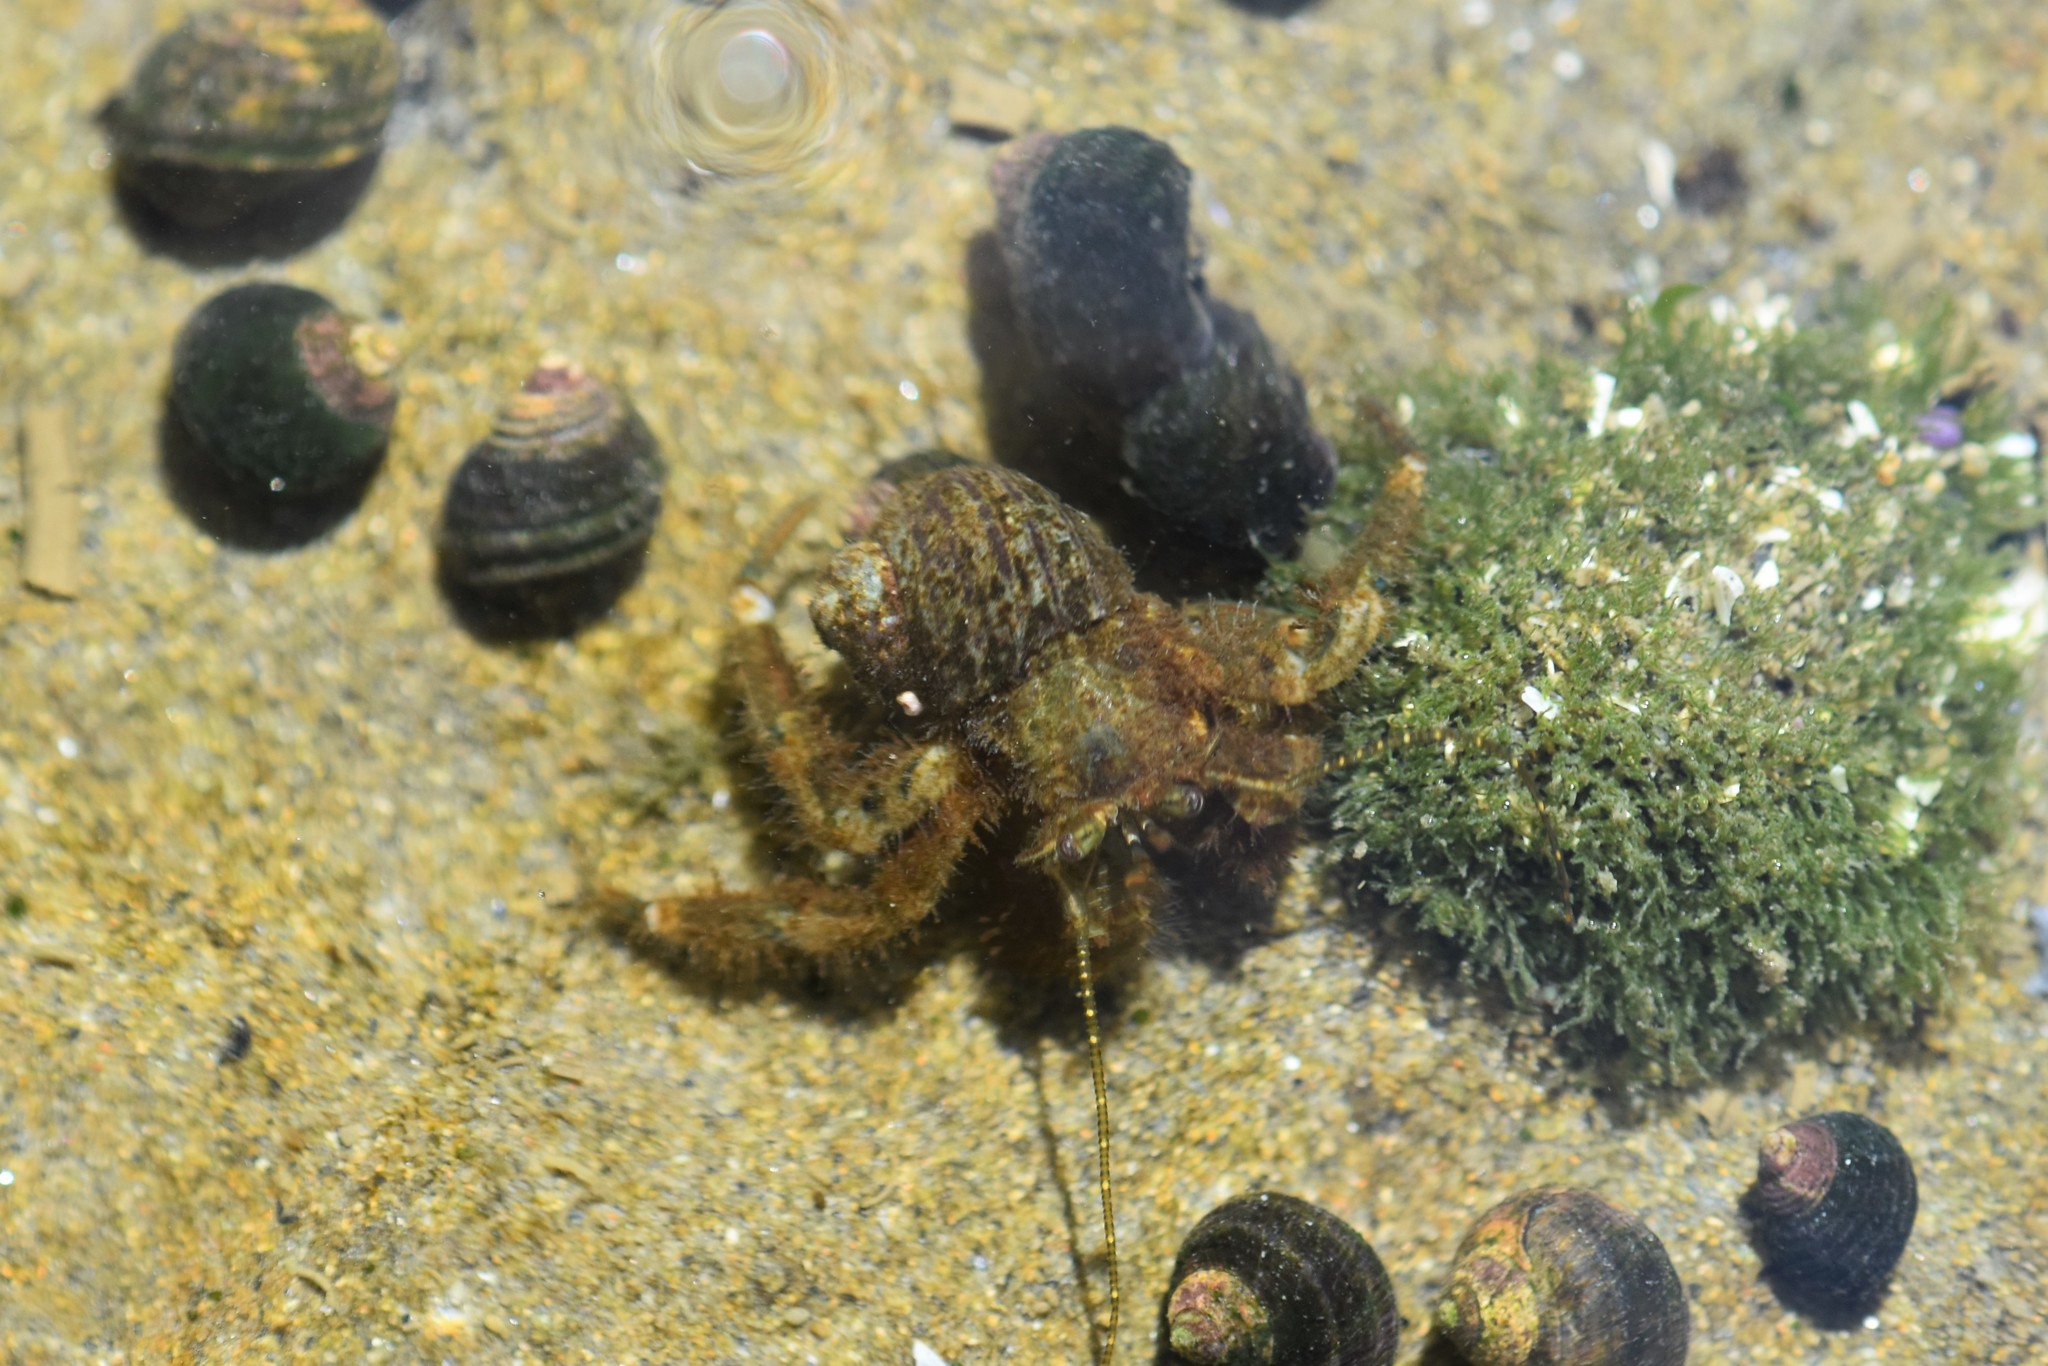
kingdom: Animalia
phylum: Arthropoda
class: Malacostraca
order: Decapoda
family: Paguridae
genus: Pagurus
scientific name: Pagurus hirsutiusculus
